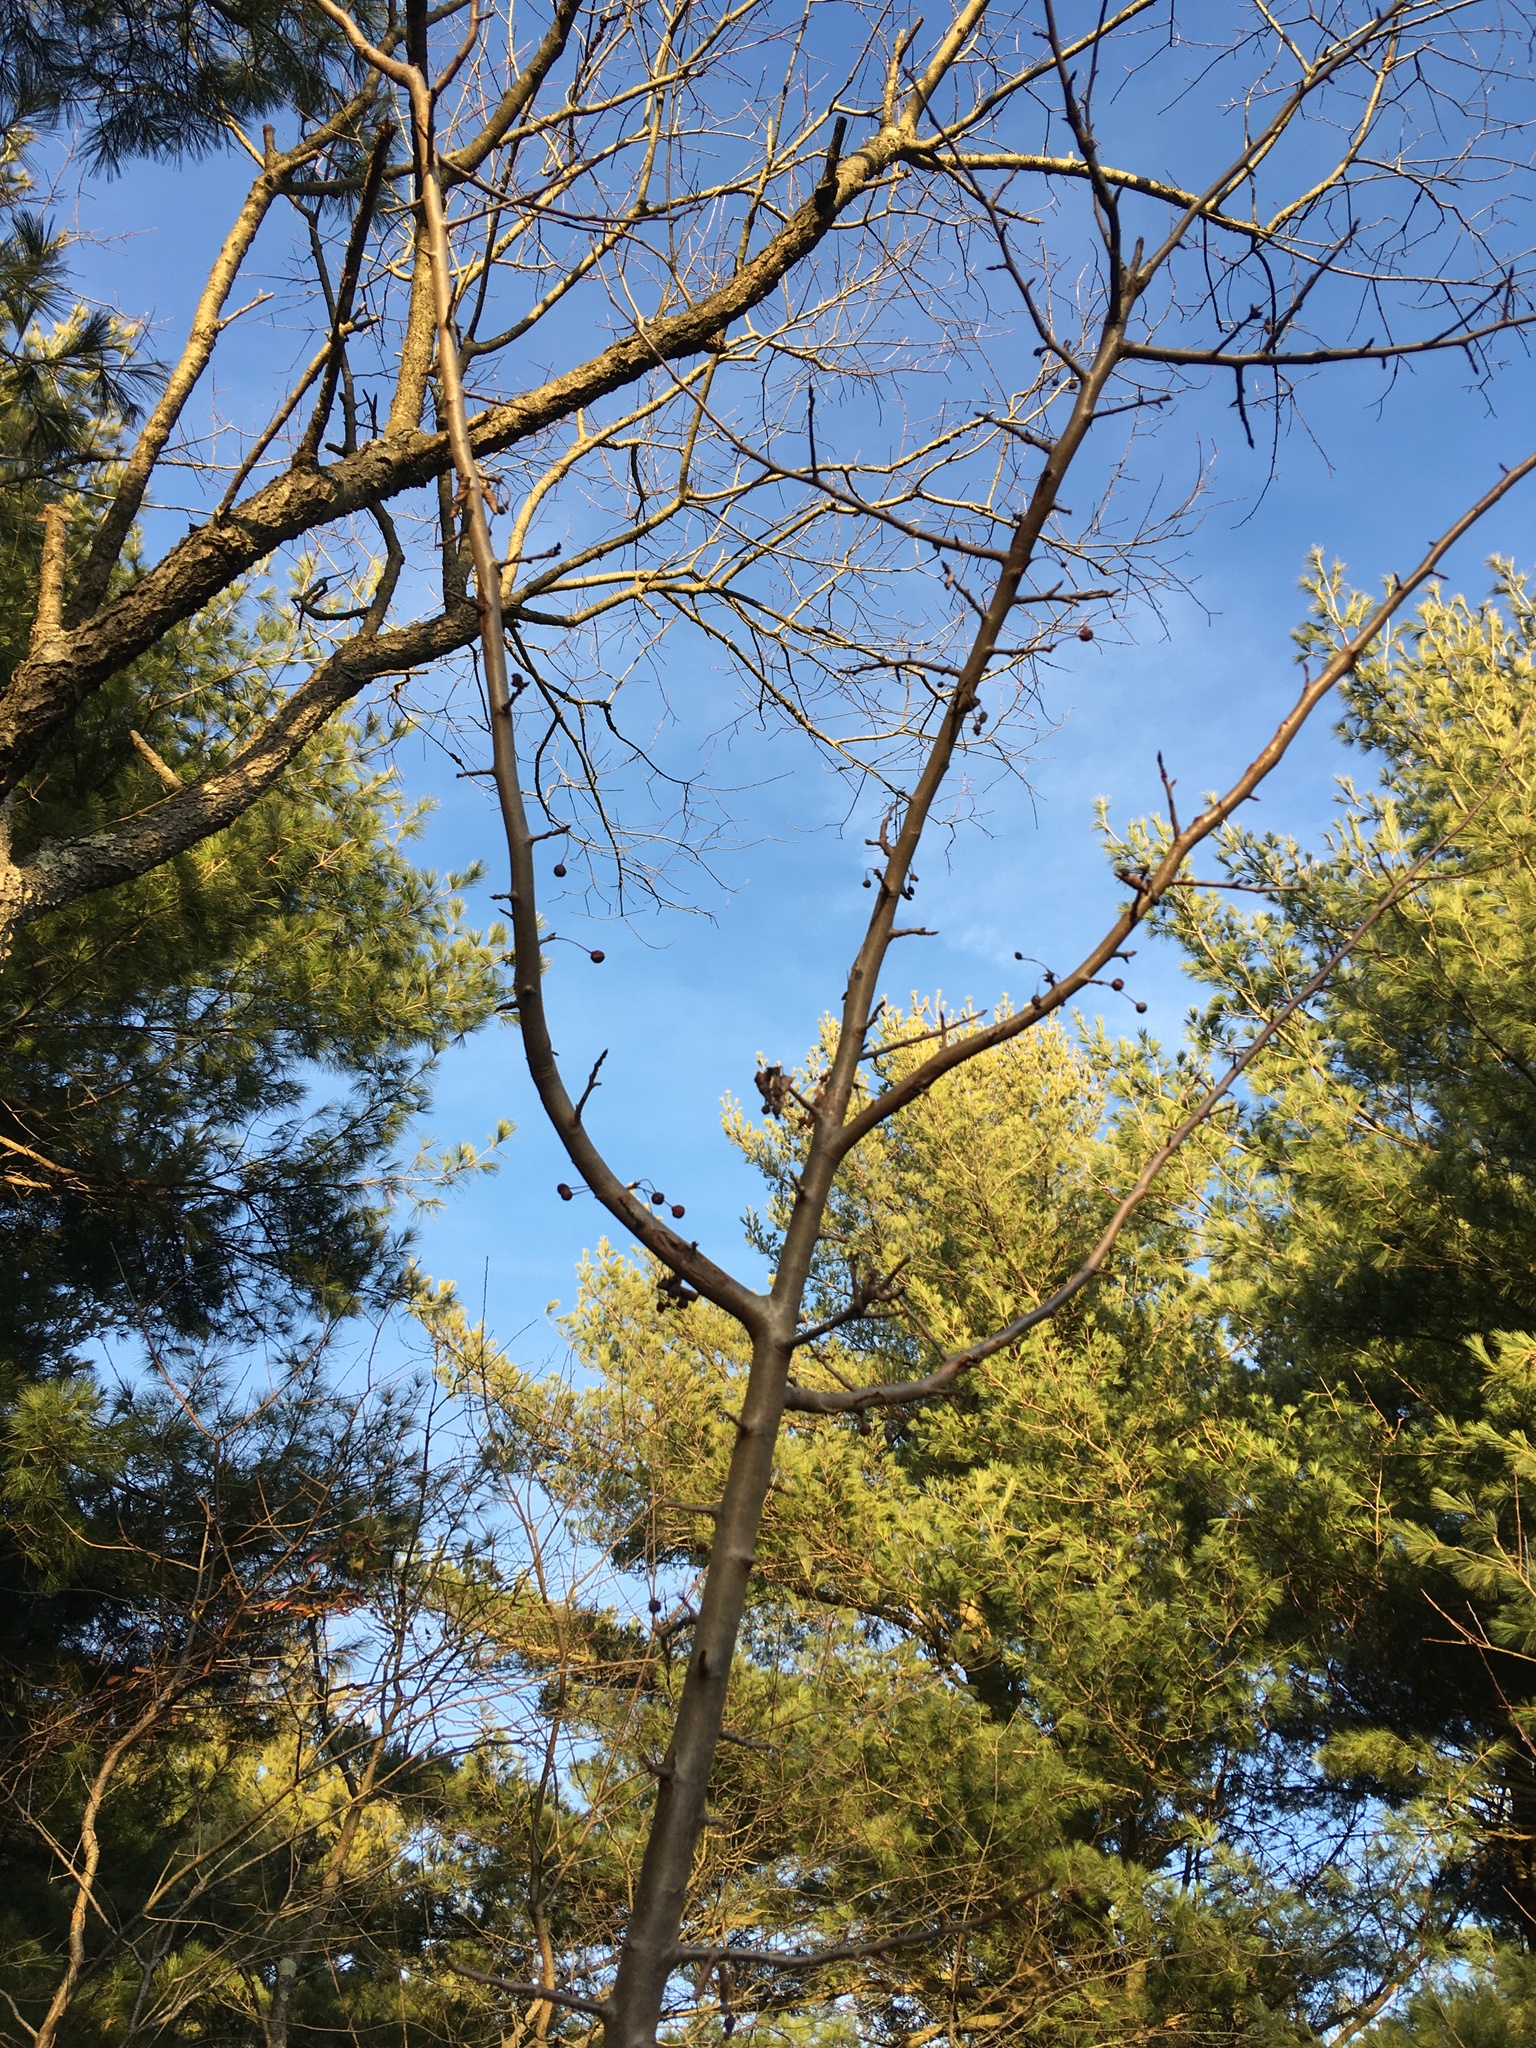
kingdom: Plantae
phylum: Tracheophyta
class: Magnoliopsida
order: Rosales
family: Rosaceae
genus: Malus
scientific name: Malus hupehensis
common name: Chinese crab apple
